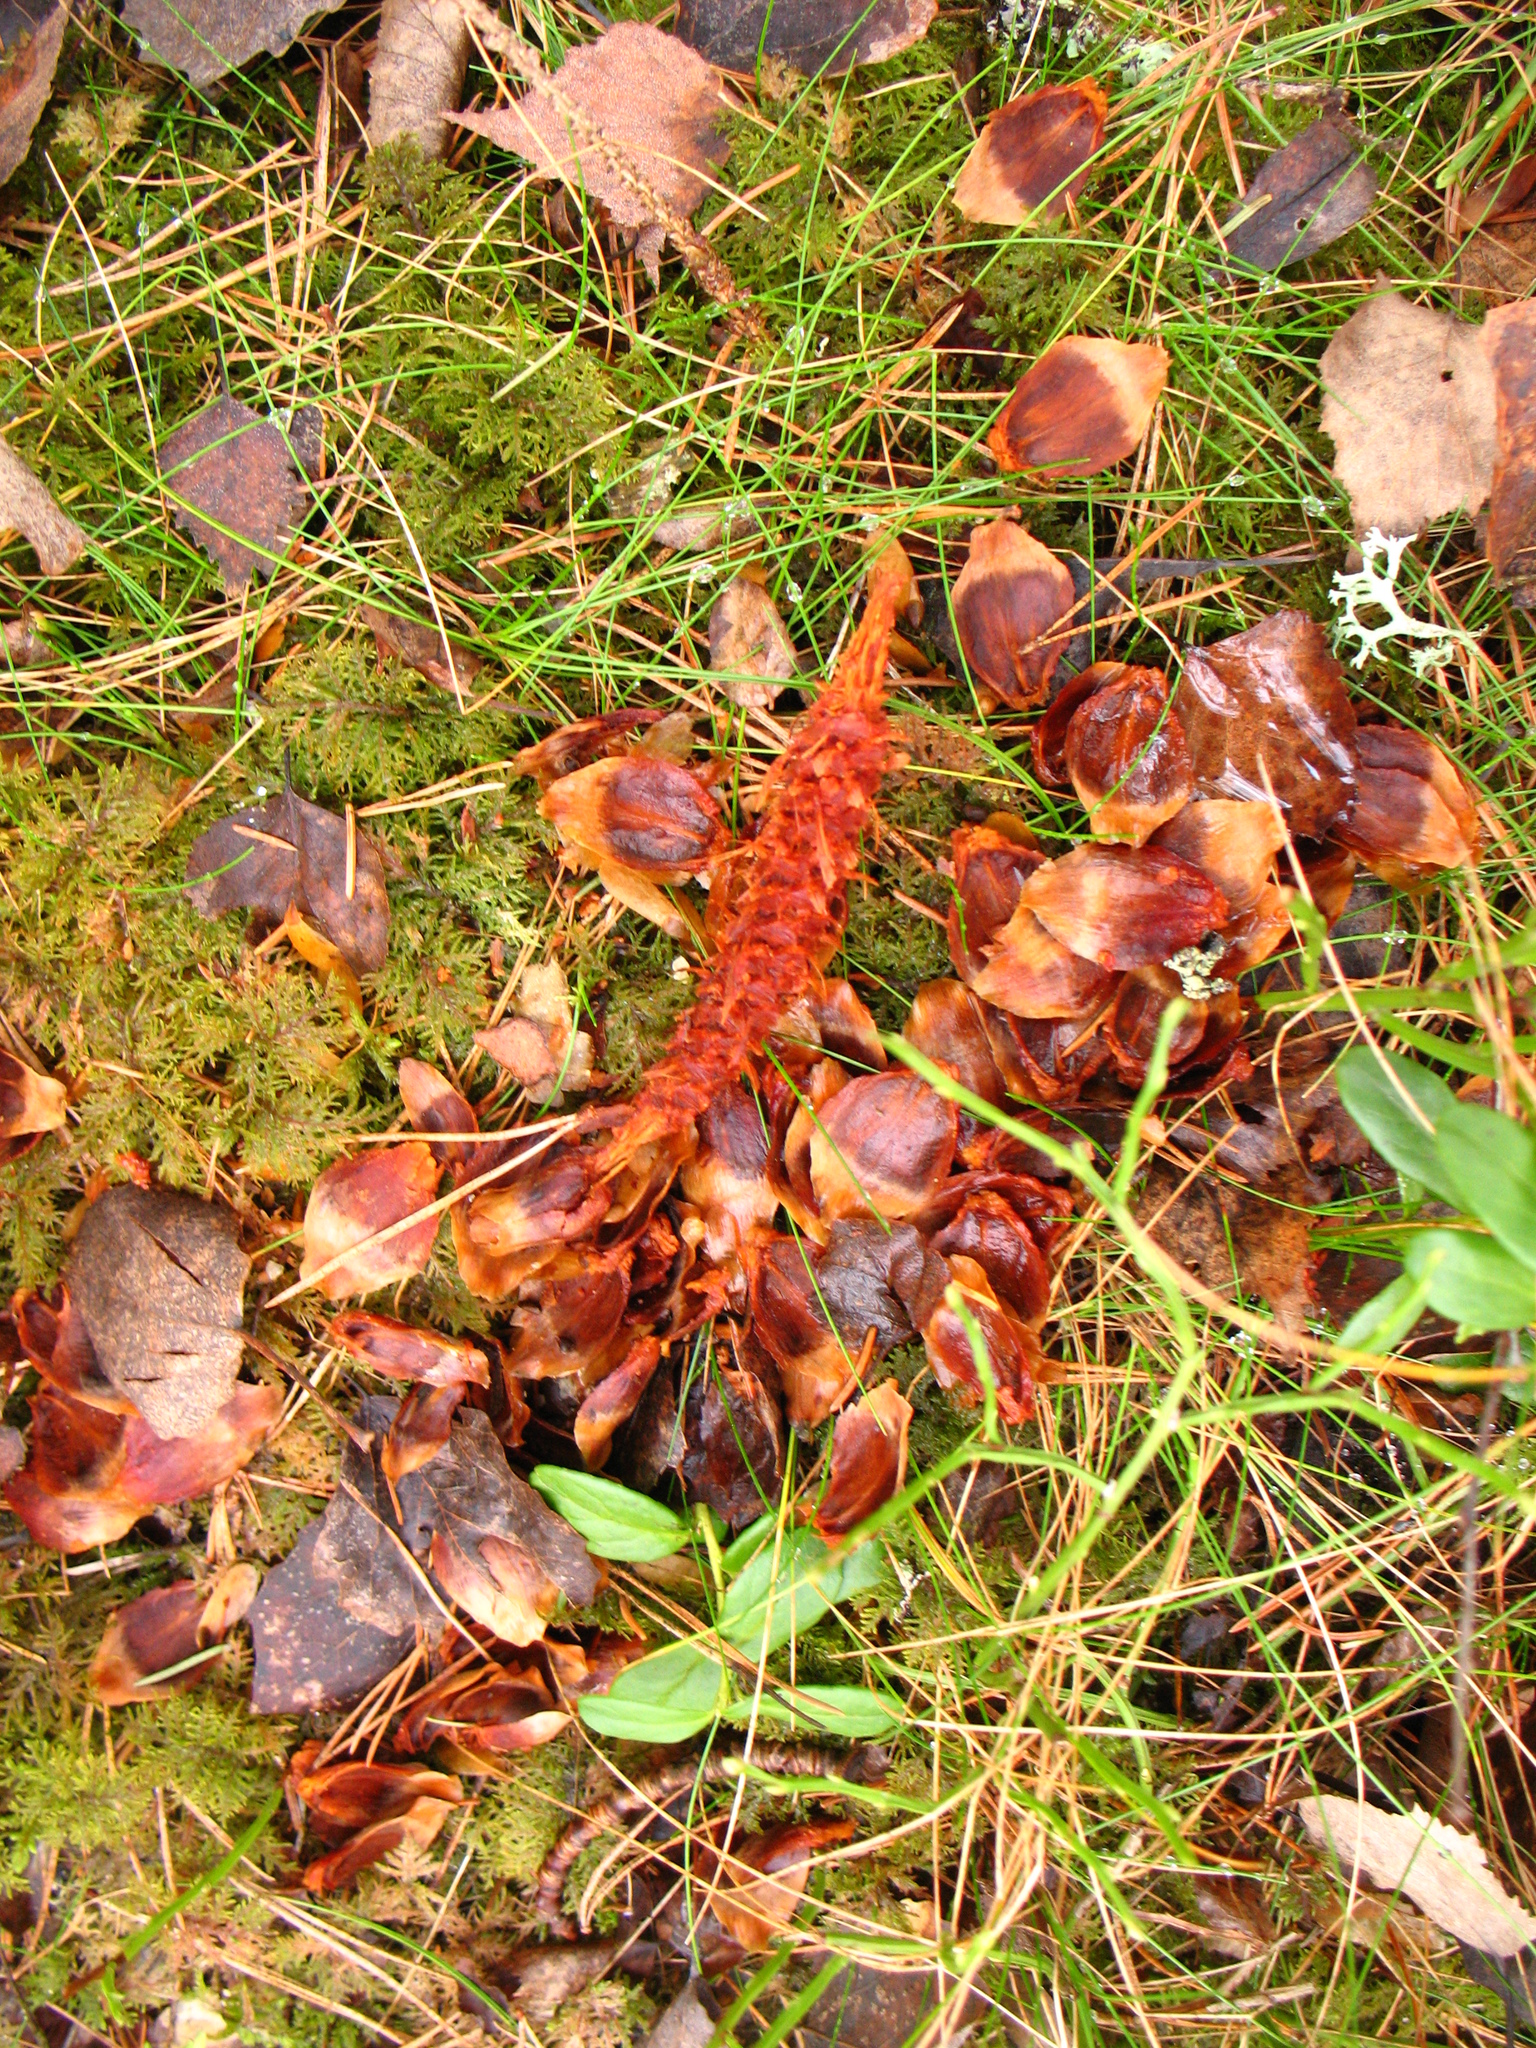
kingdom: Animalia
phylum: Chordata
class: Mammalia
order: Rodentia
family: Sciuridae
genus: Sciurus
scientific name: Sciurus vulgaris
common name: Eurasian red squirrel
